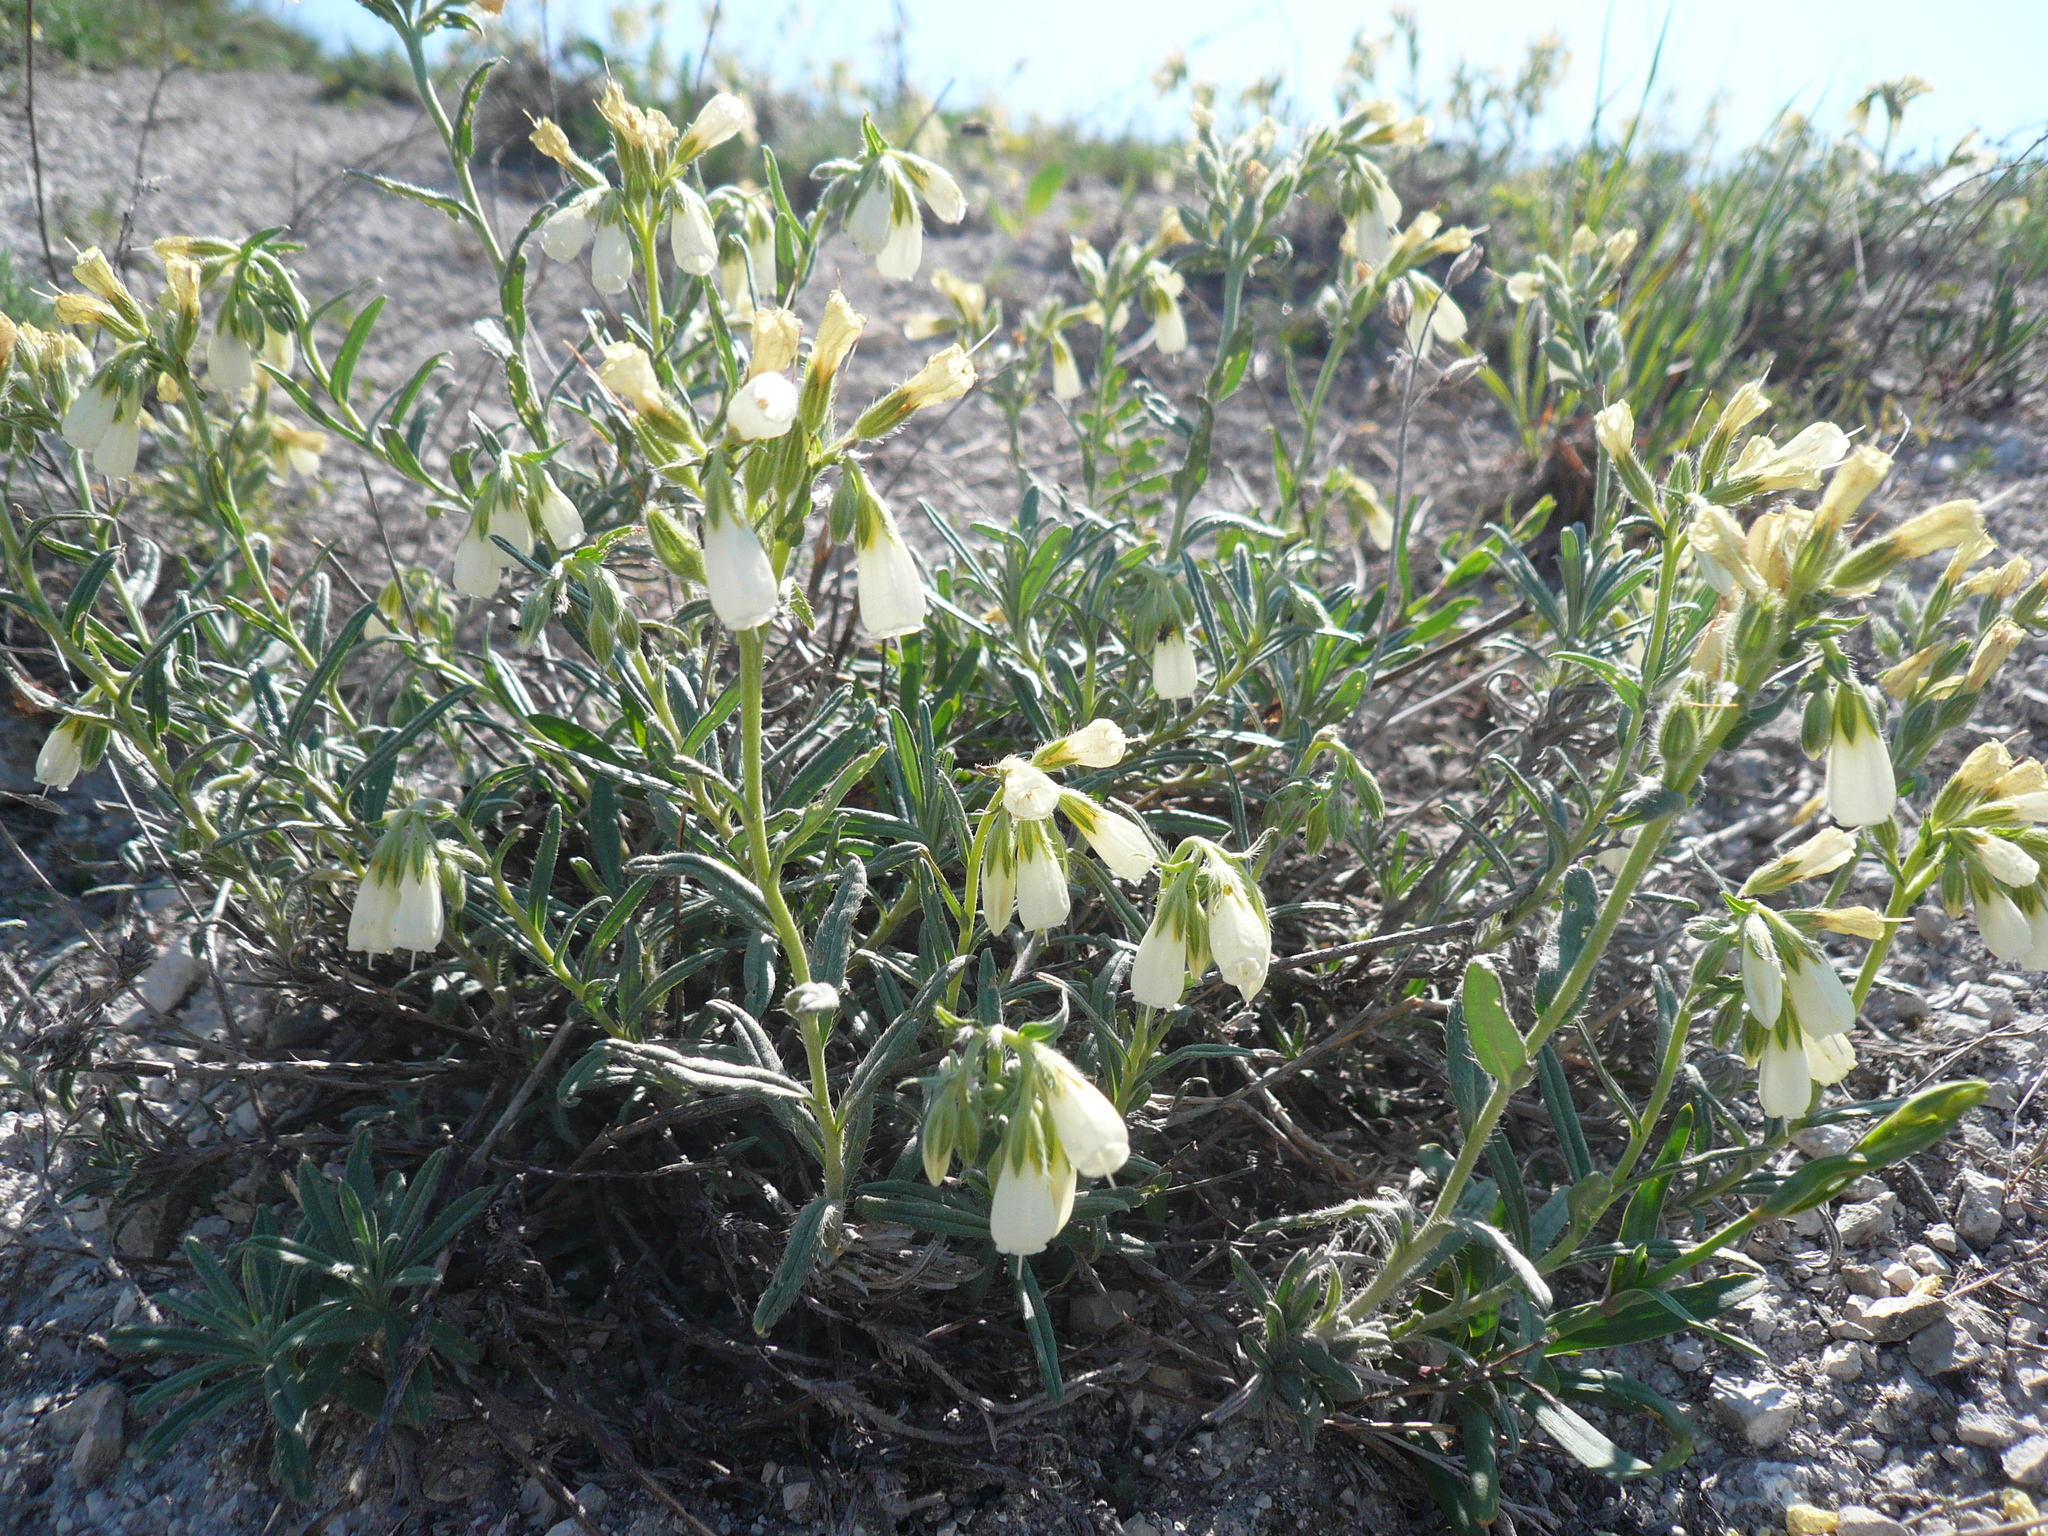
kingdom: Plantae
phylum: Tracheophyta
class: Magnoliopsida
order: Boraginales
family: Boraginaceae
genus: Onosma
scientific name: Onosma simplicissima
